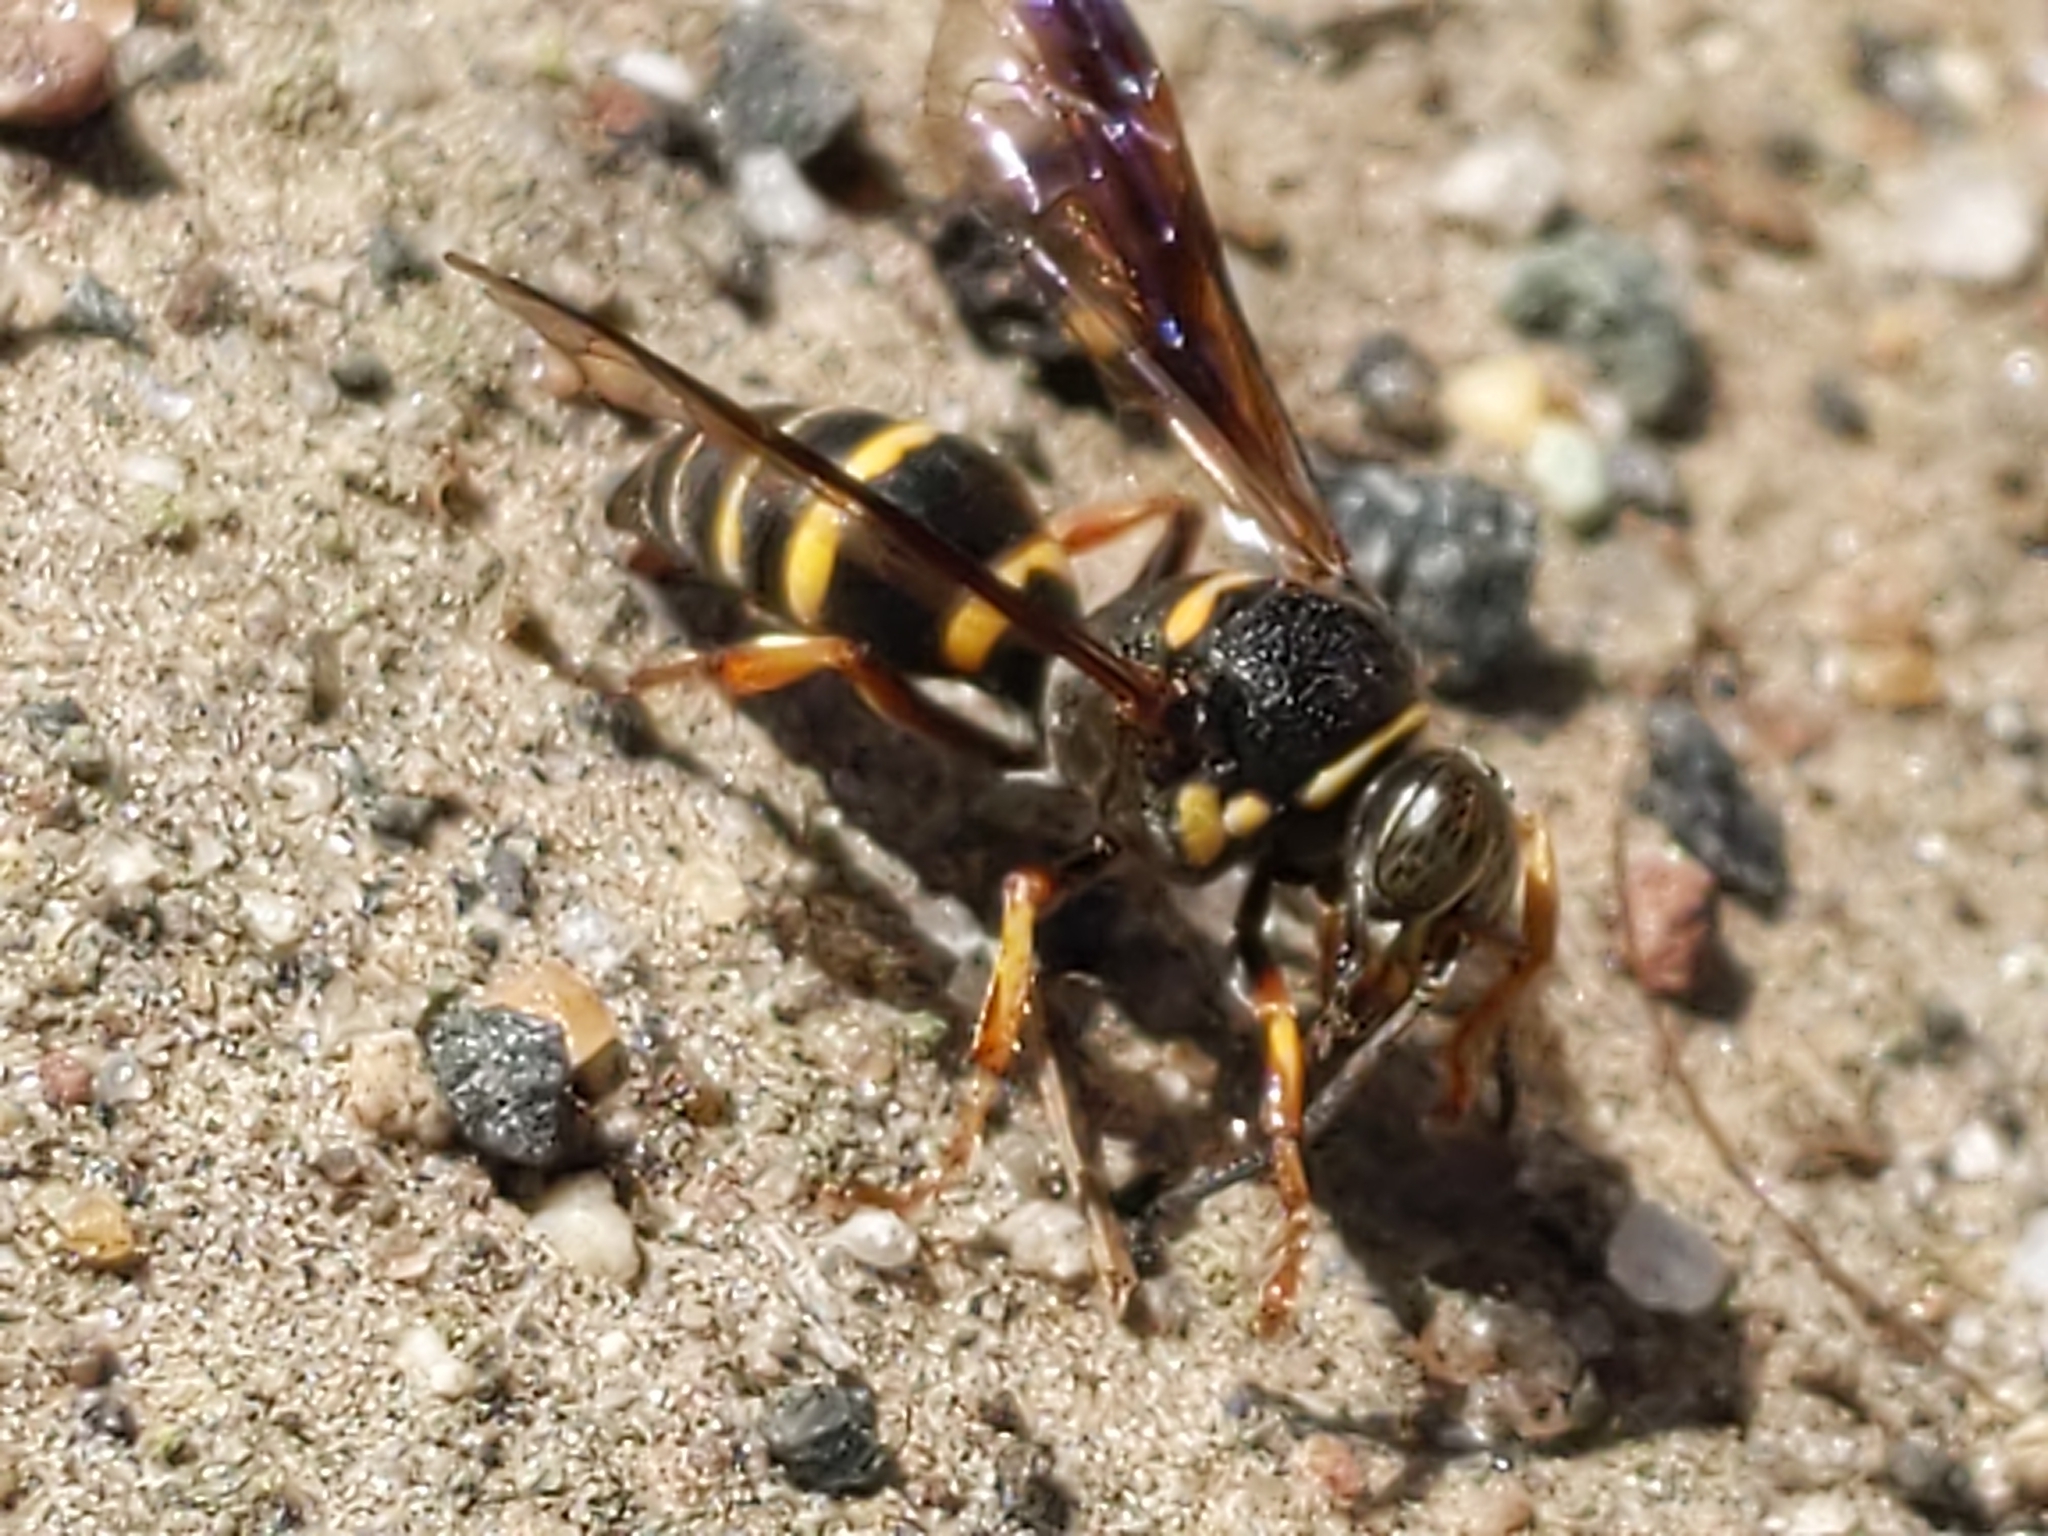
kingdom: Animalia
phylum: Arthropoda
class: Insecta
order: Hymenoptera
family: Crabronidae
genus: Hoplisoides
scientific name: Hoplisoides
